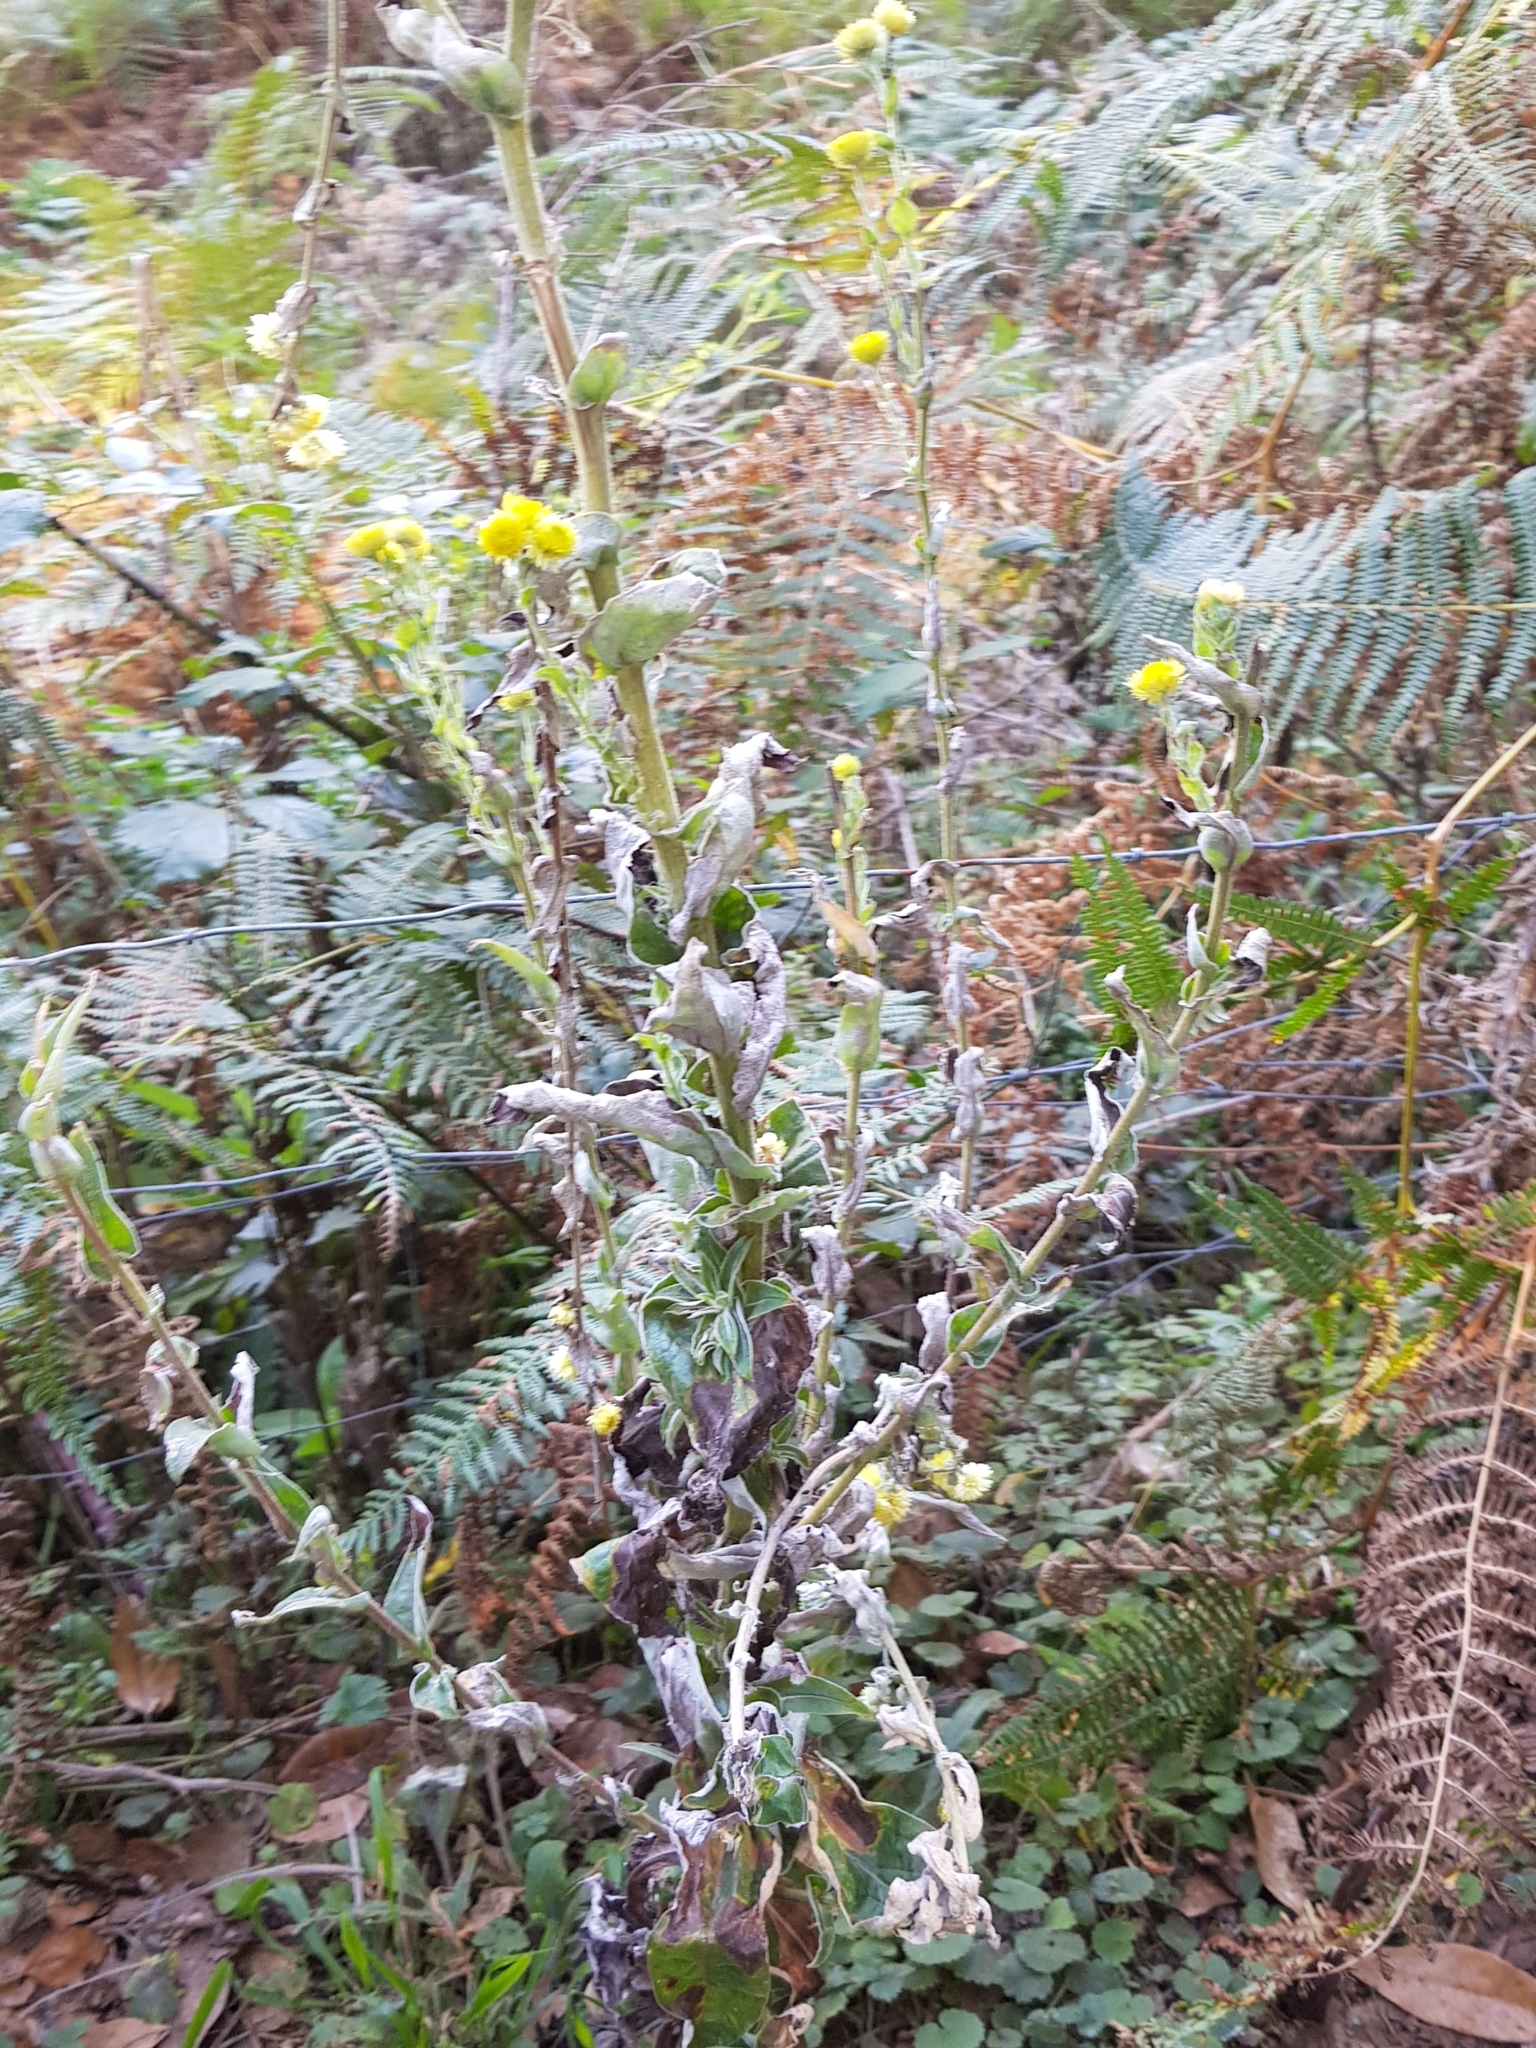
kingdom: Plantae
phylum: Tracheophyta
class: Magnoliopsida
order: Asterales
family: Asteraceae
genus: Helichrysum
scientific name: Helichrysum foetidum
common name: Stinking everlasting
